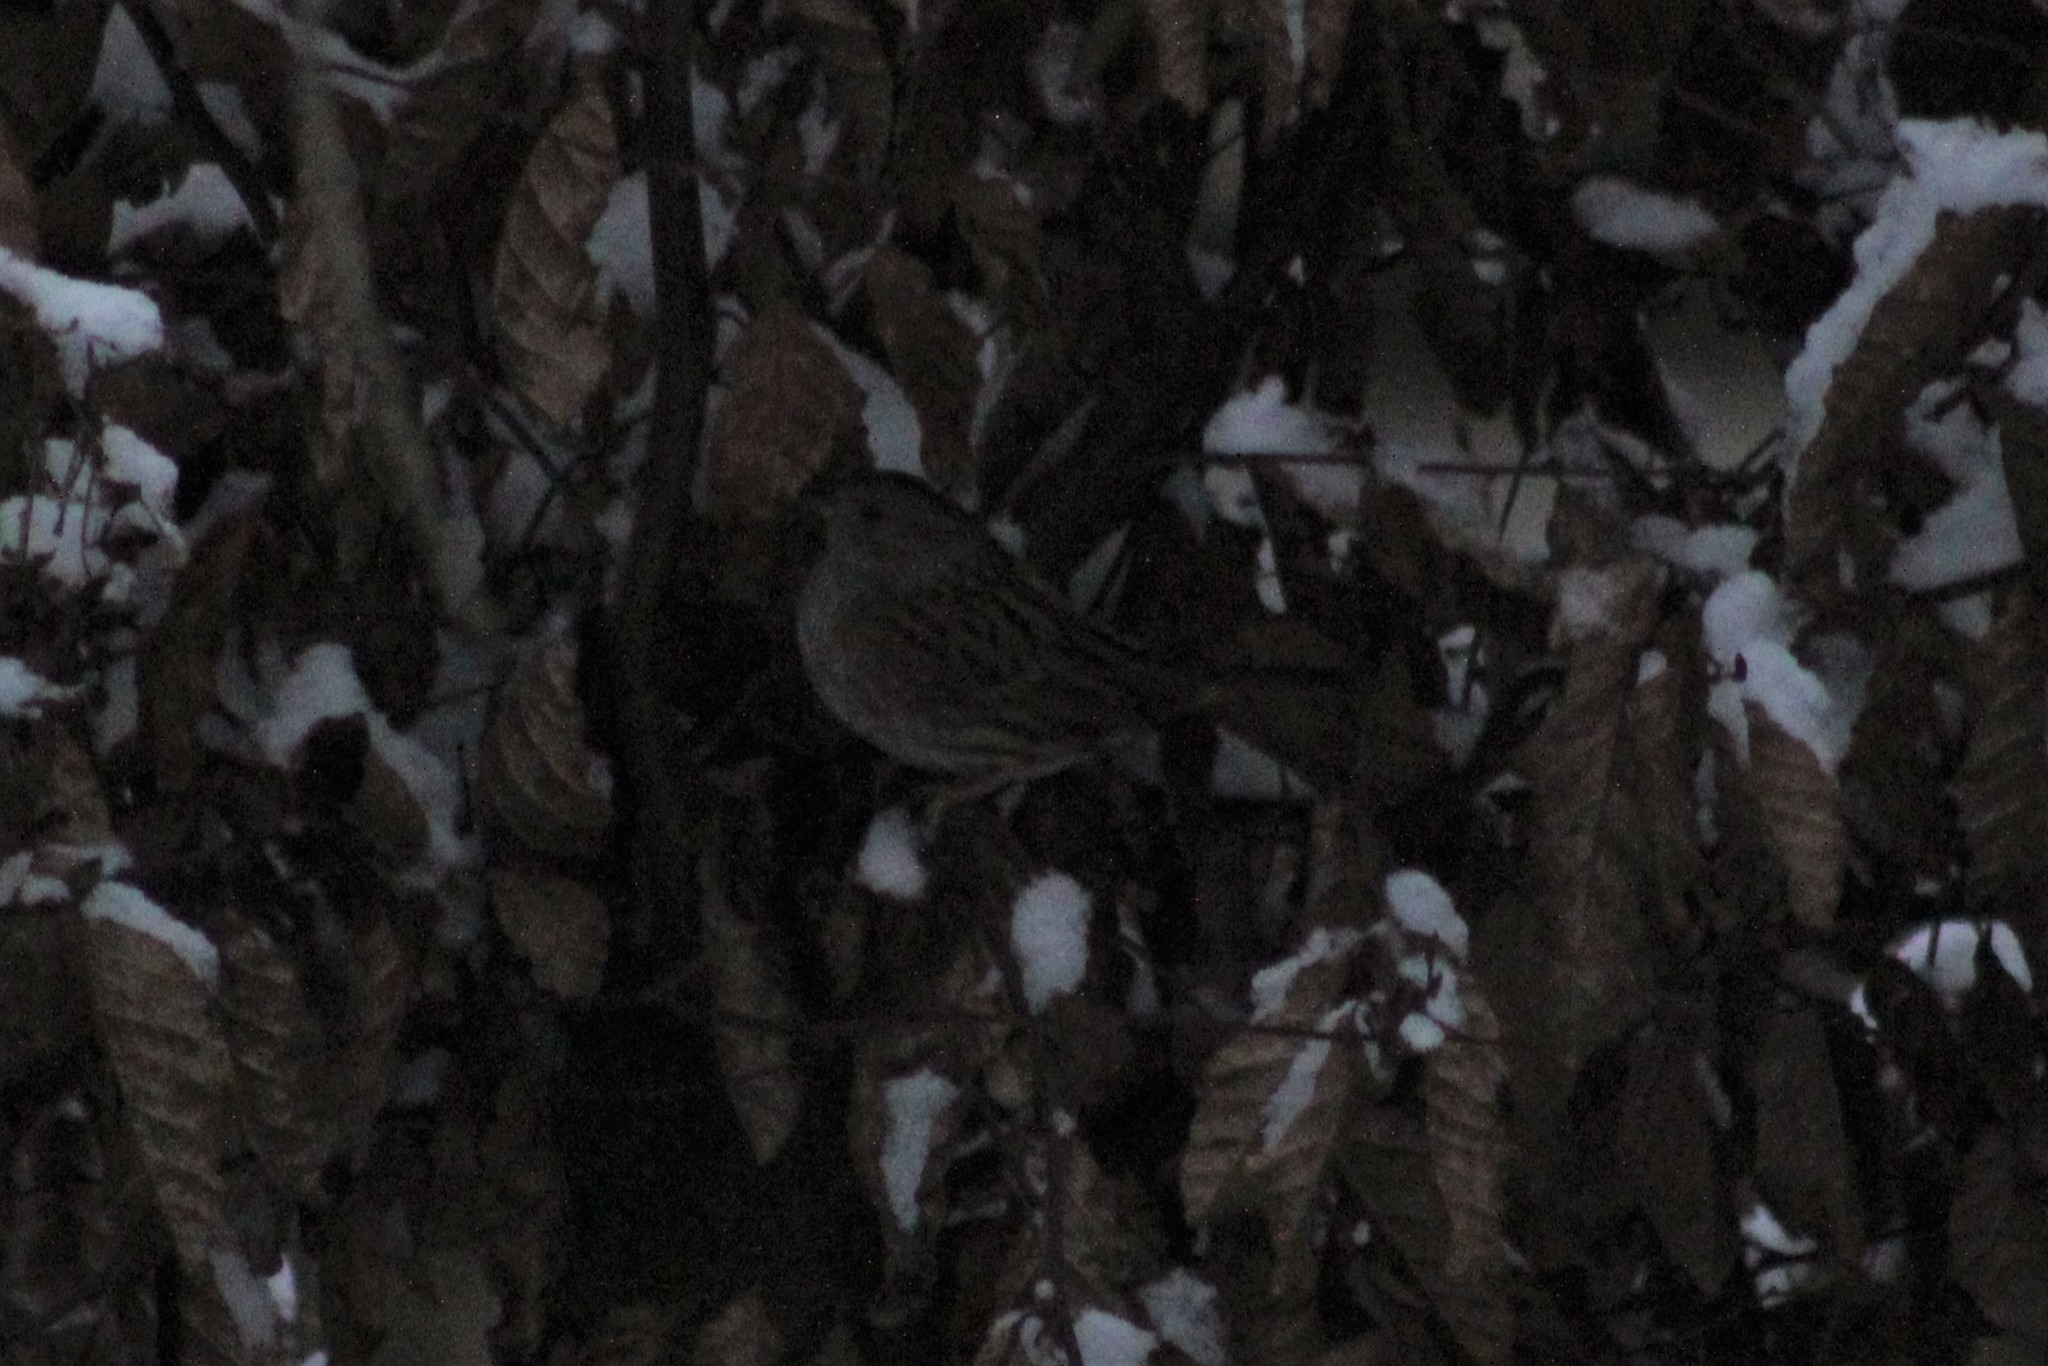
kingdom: Animalia
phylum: Chordata
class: Aves
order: Passeriformes
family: Prunellidae
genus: Prunella
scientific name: Prunella modularis
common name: Dunnock
